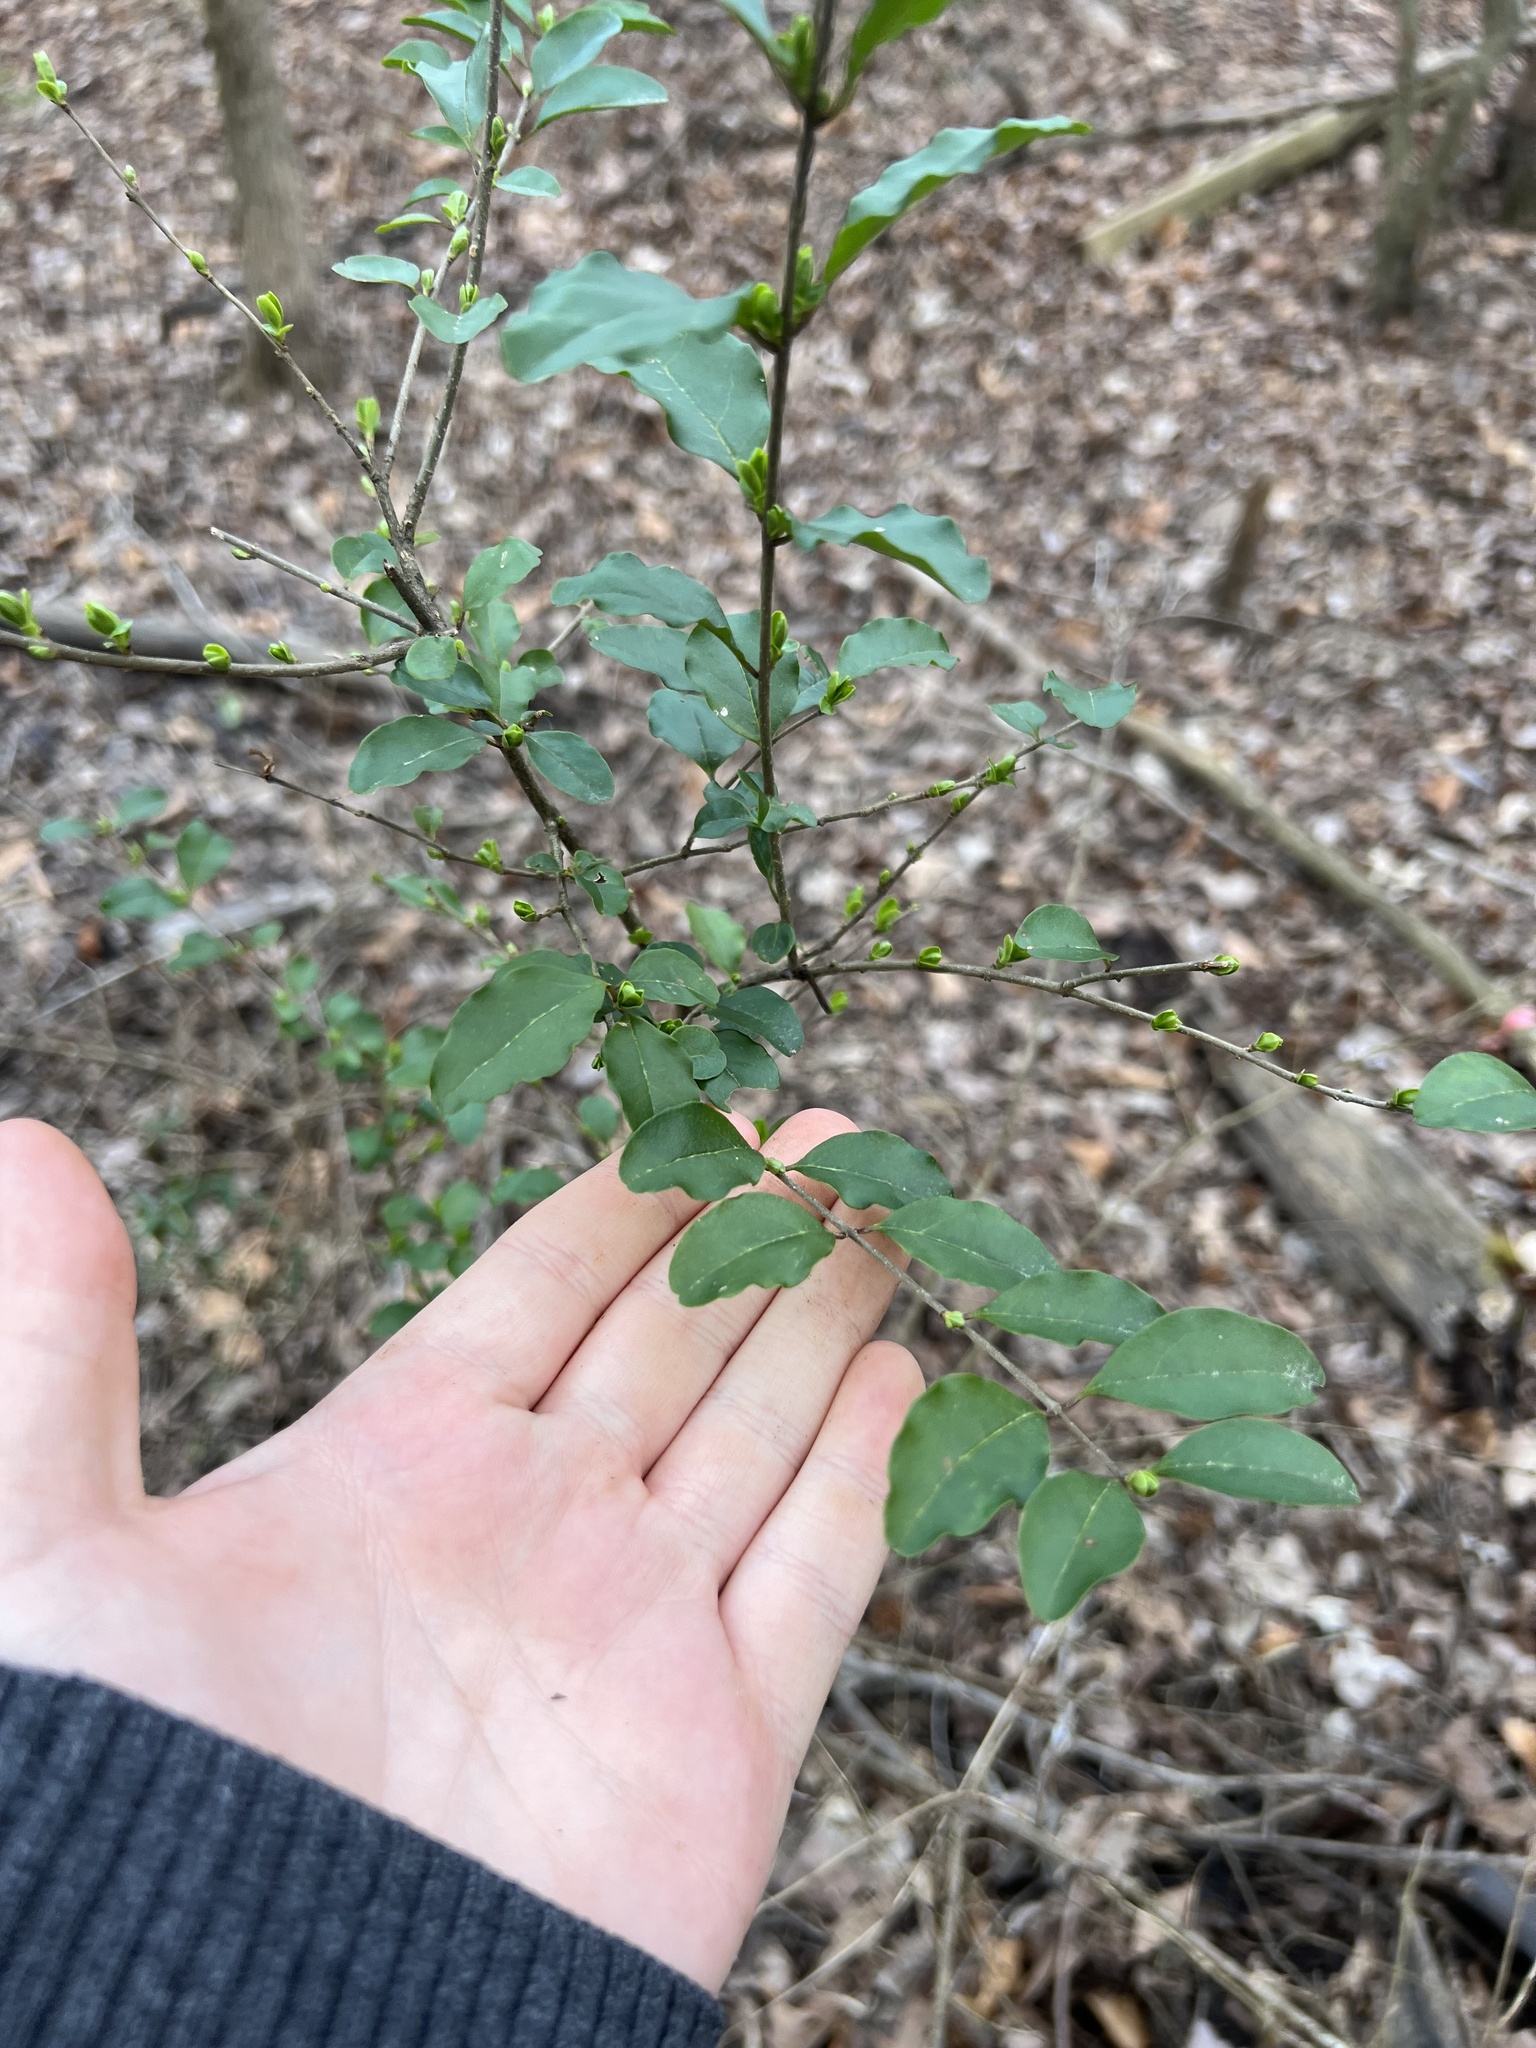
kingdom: Plantae
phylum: Tracheophyta
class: Magnoliopsida
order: Lamiales
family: Oleaceae
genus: Ligustrum
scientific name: Ligustrum sinense
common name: Chinese privet
